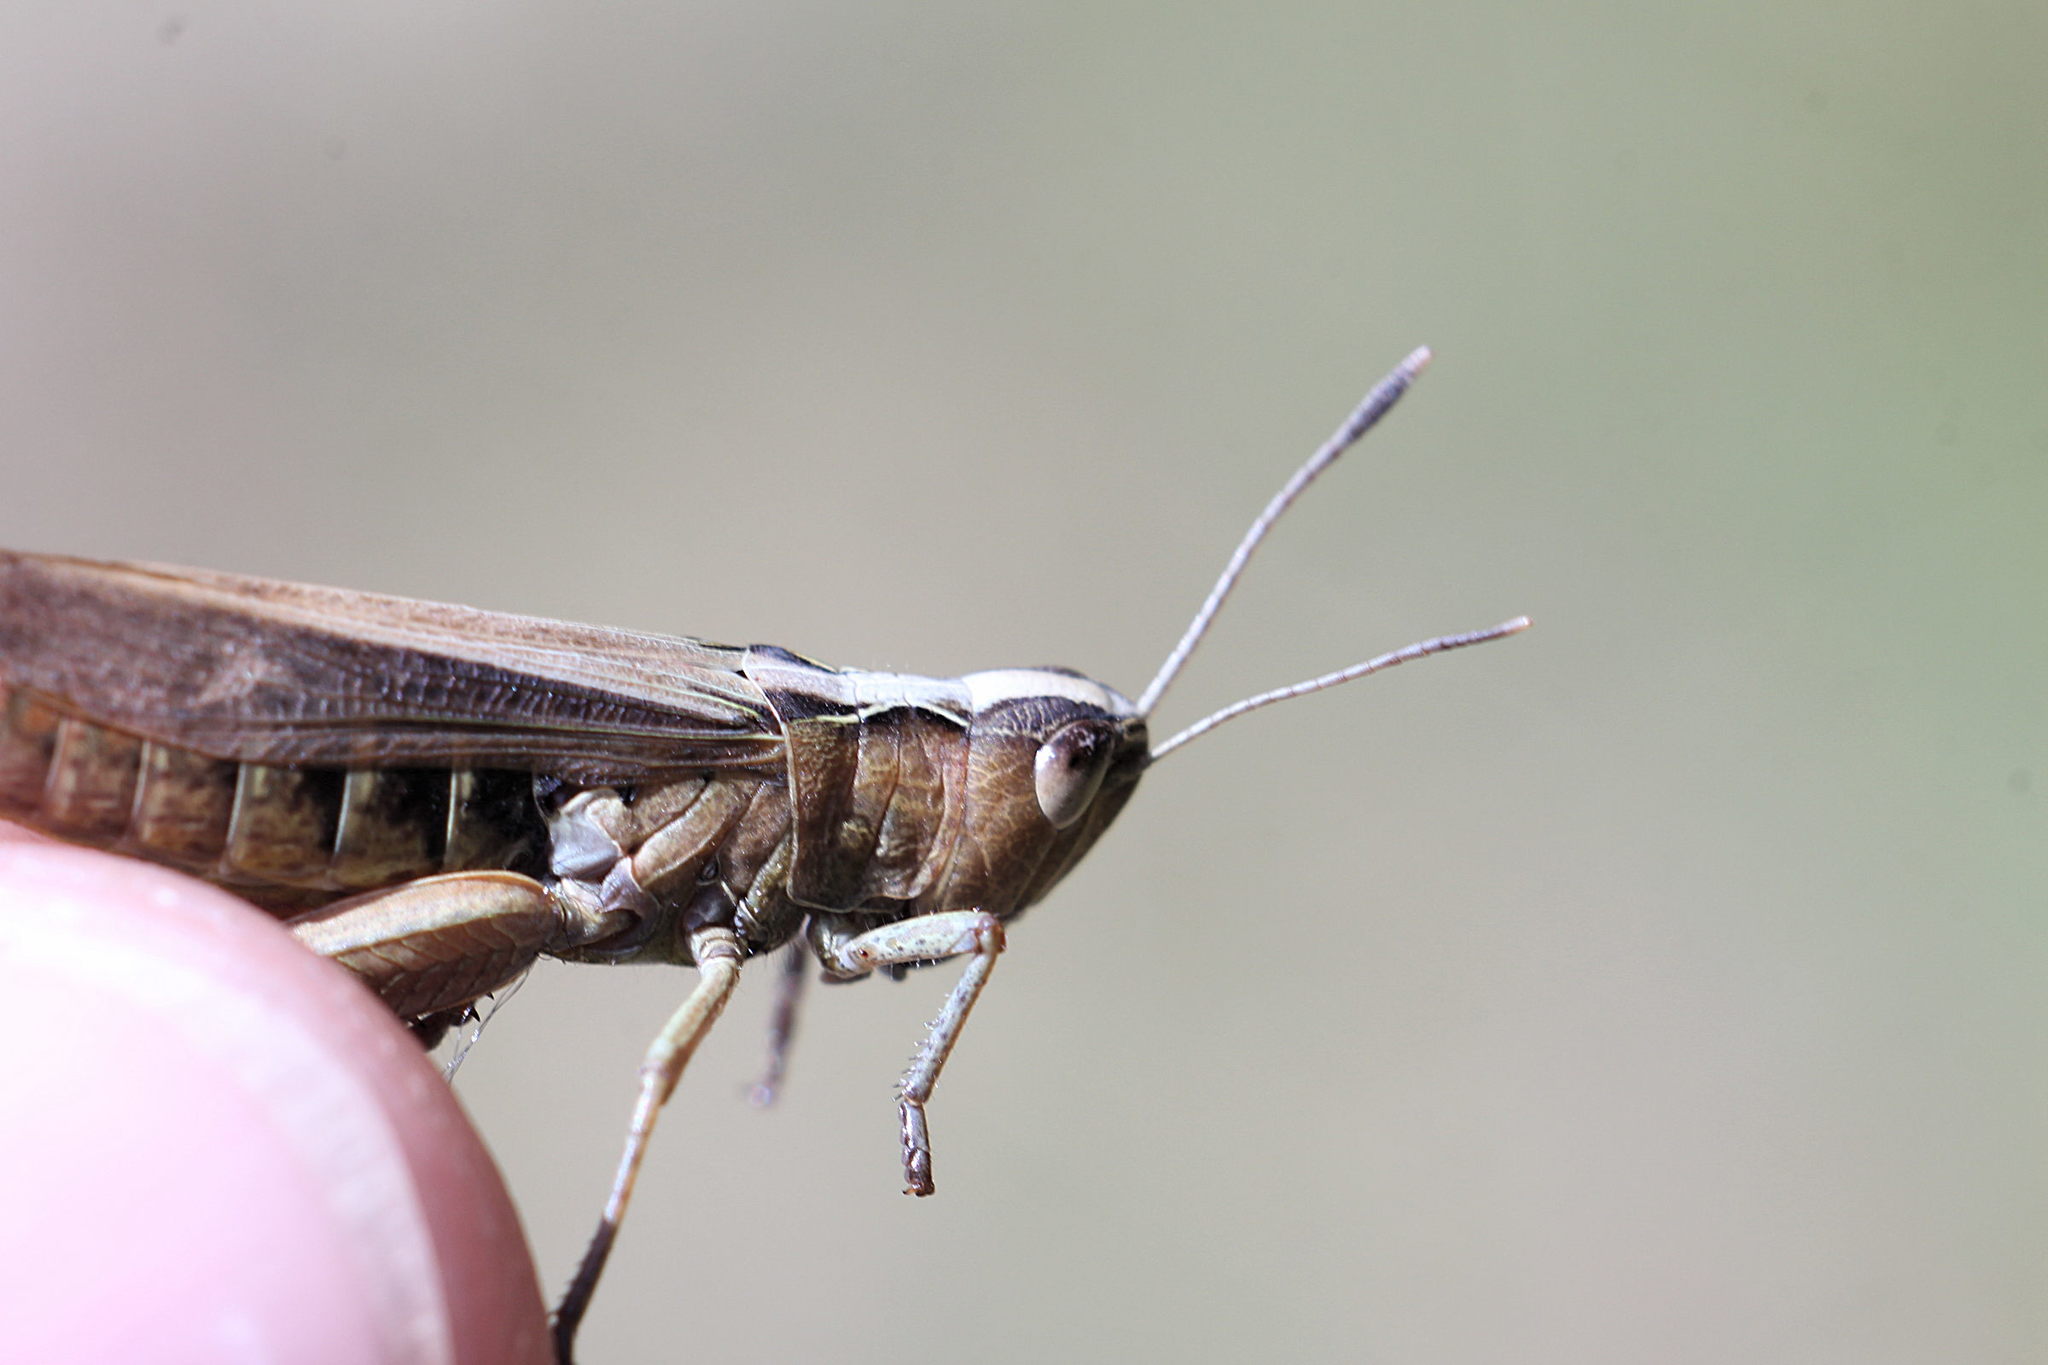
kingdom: Animalia
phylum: Arthropoda
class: Insecta
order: Orthoptera
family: Acrididae
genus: Gomphocerippus
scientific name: Gomphocerippus rufus
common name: Rufous grasshopper
